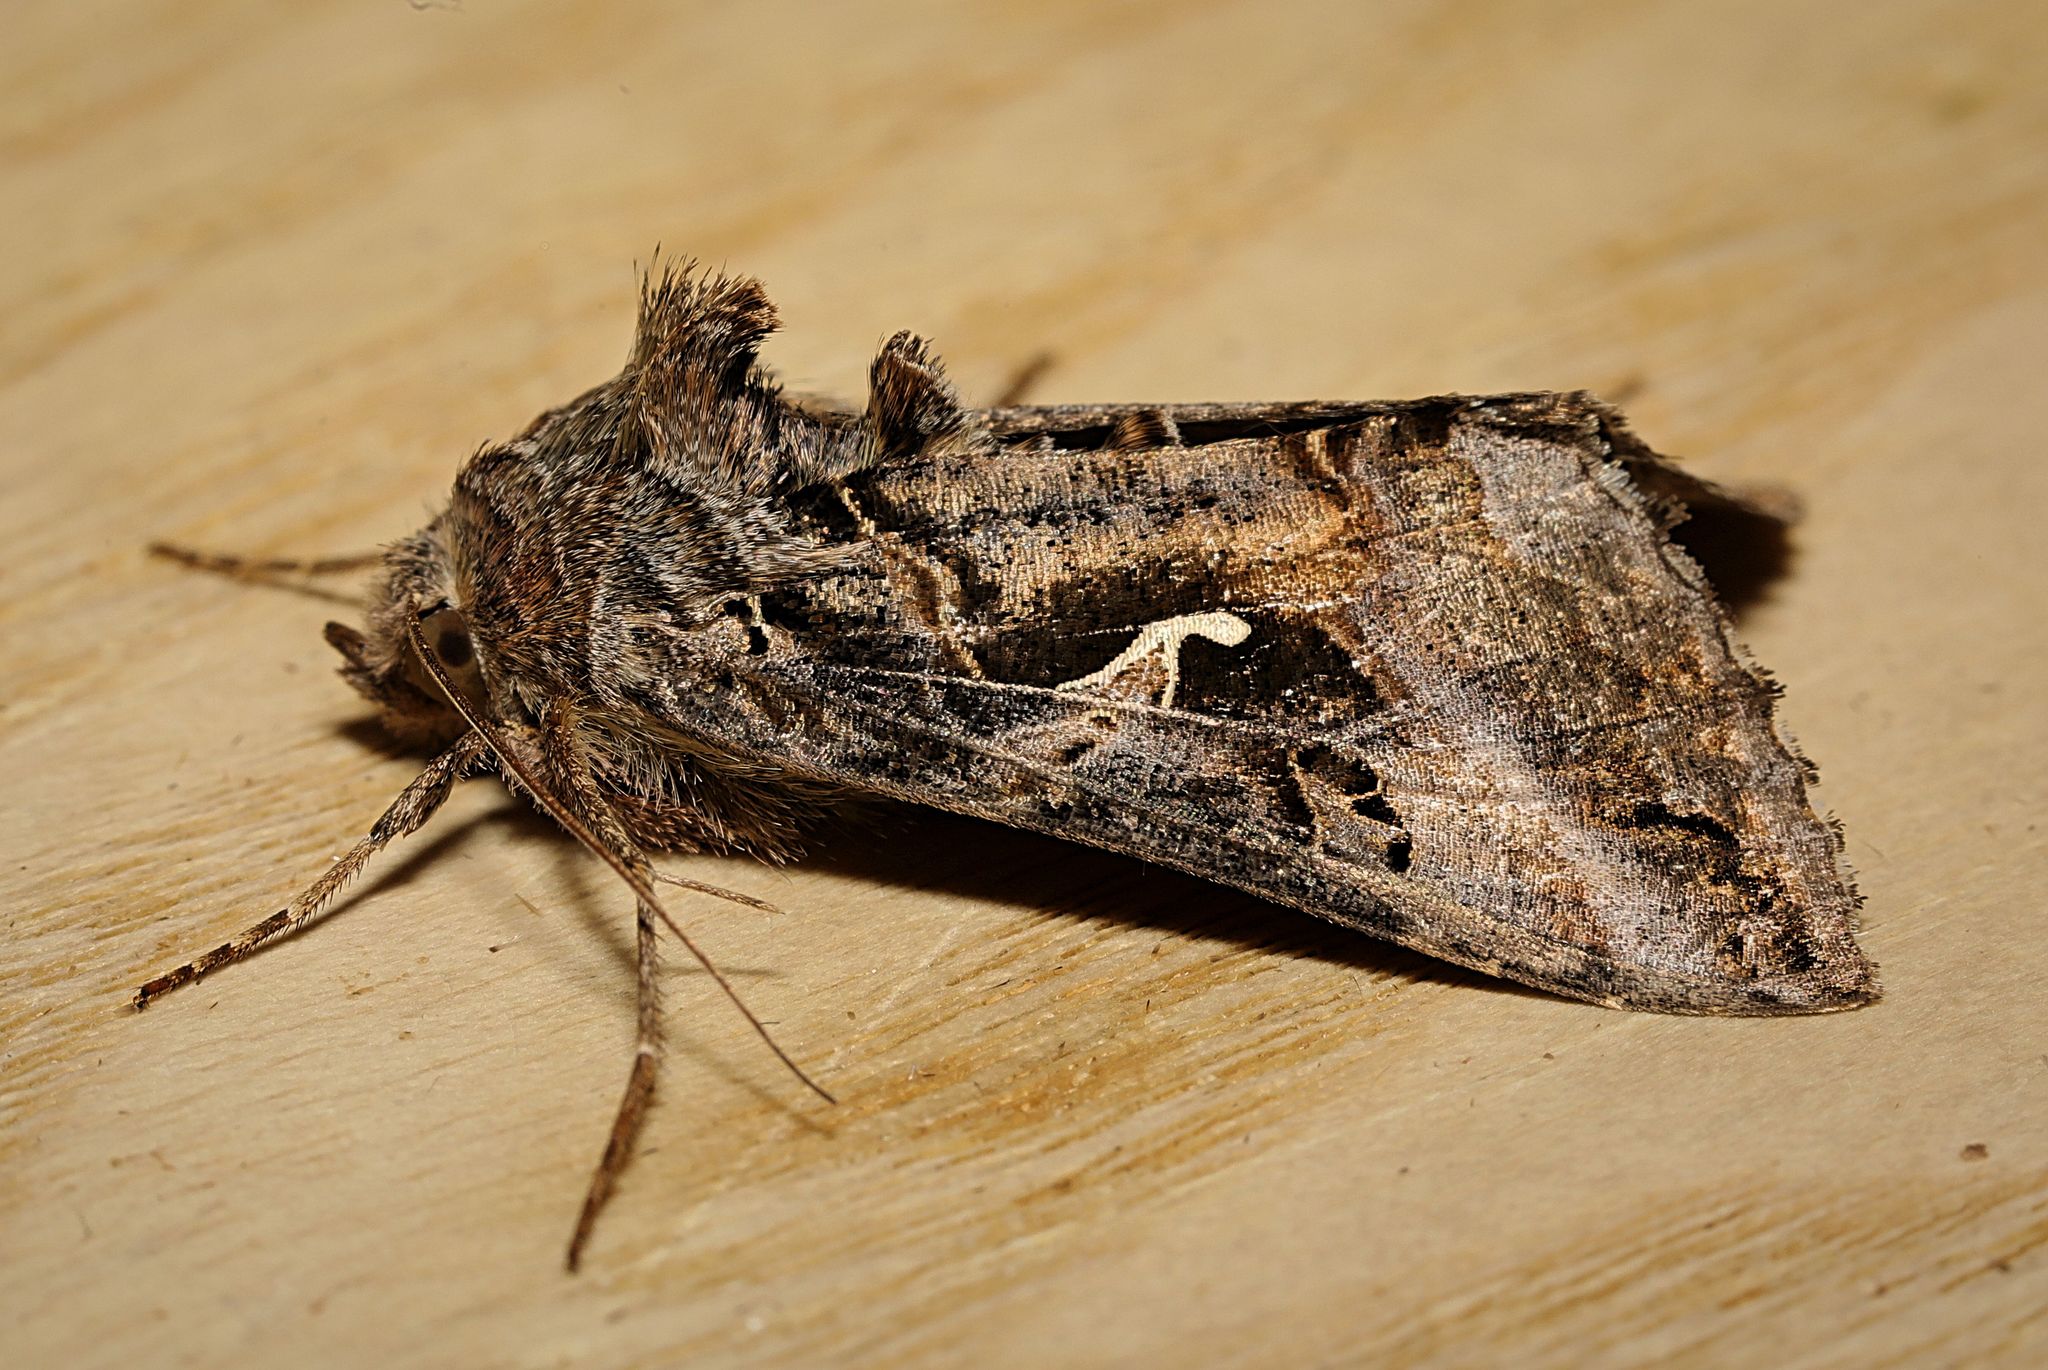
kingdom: Animalia
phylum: Arthropoda
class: Insecta
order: Lepidoptera
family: Noctuidae
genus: Autographa
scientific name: Autographa gamma
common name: Silver y
